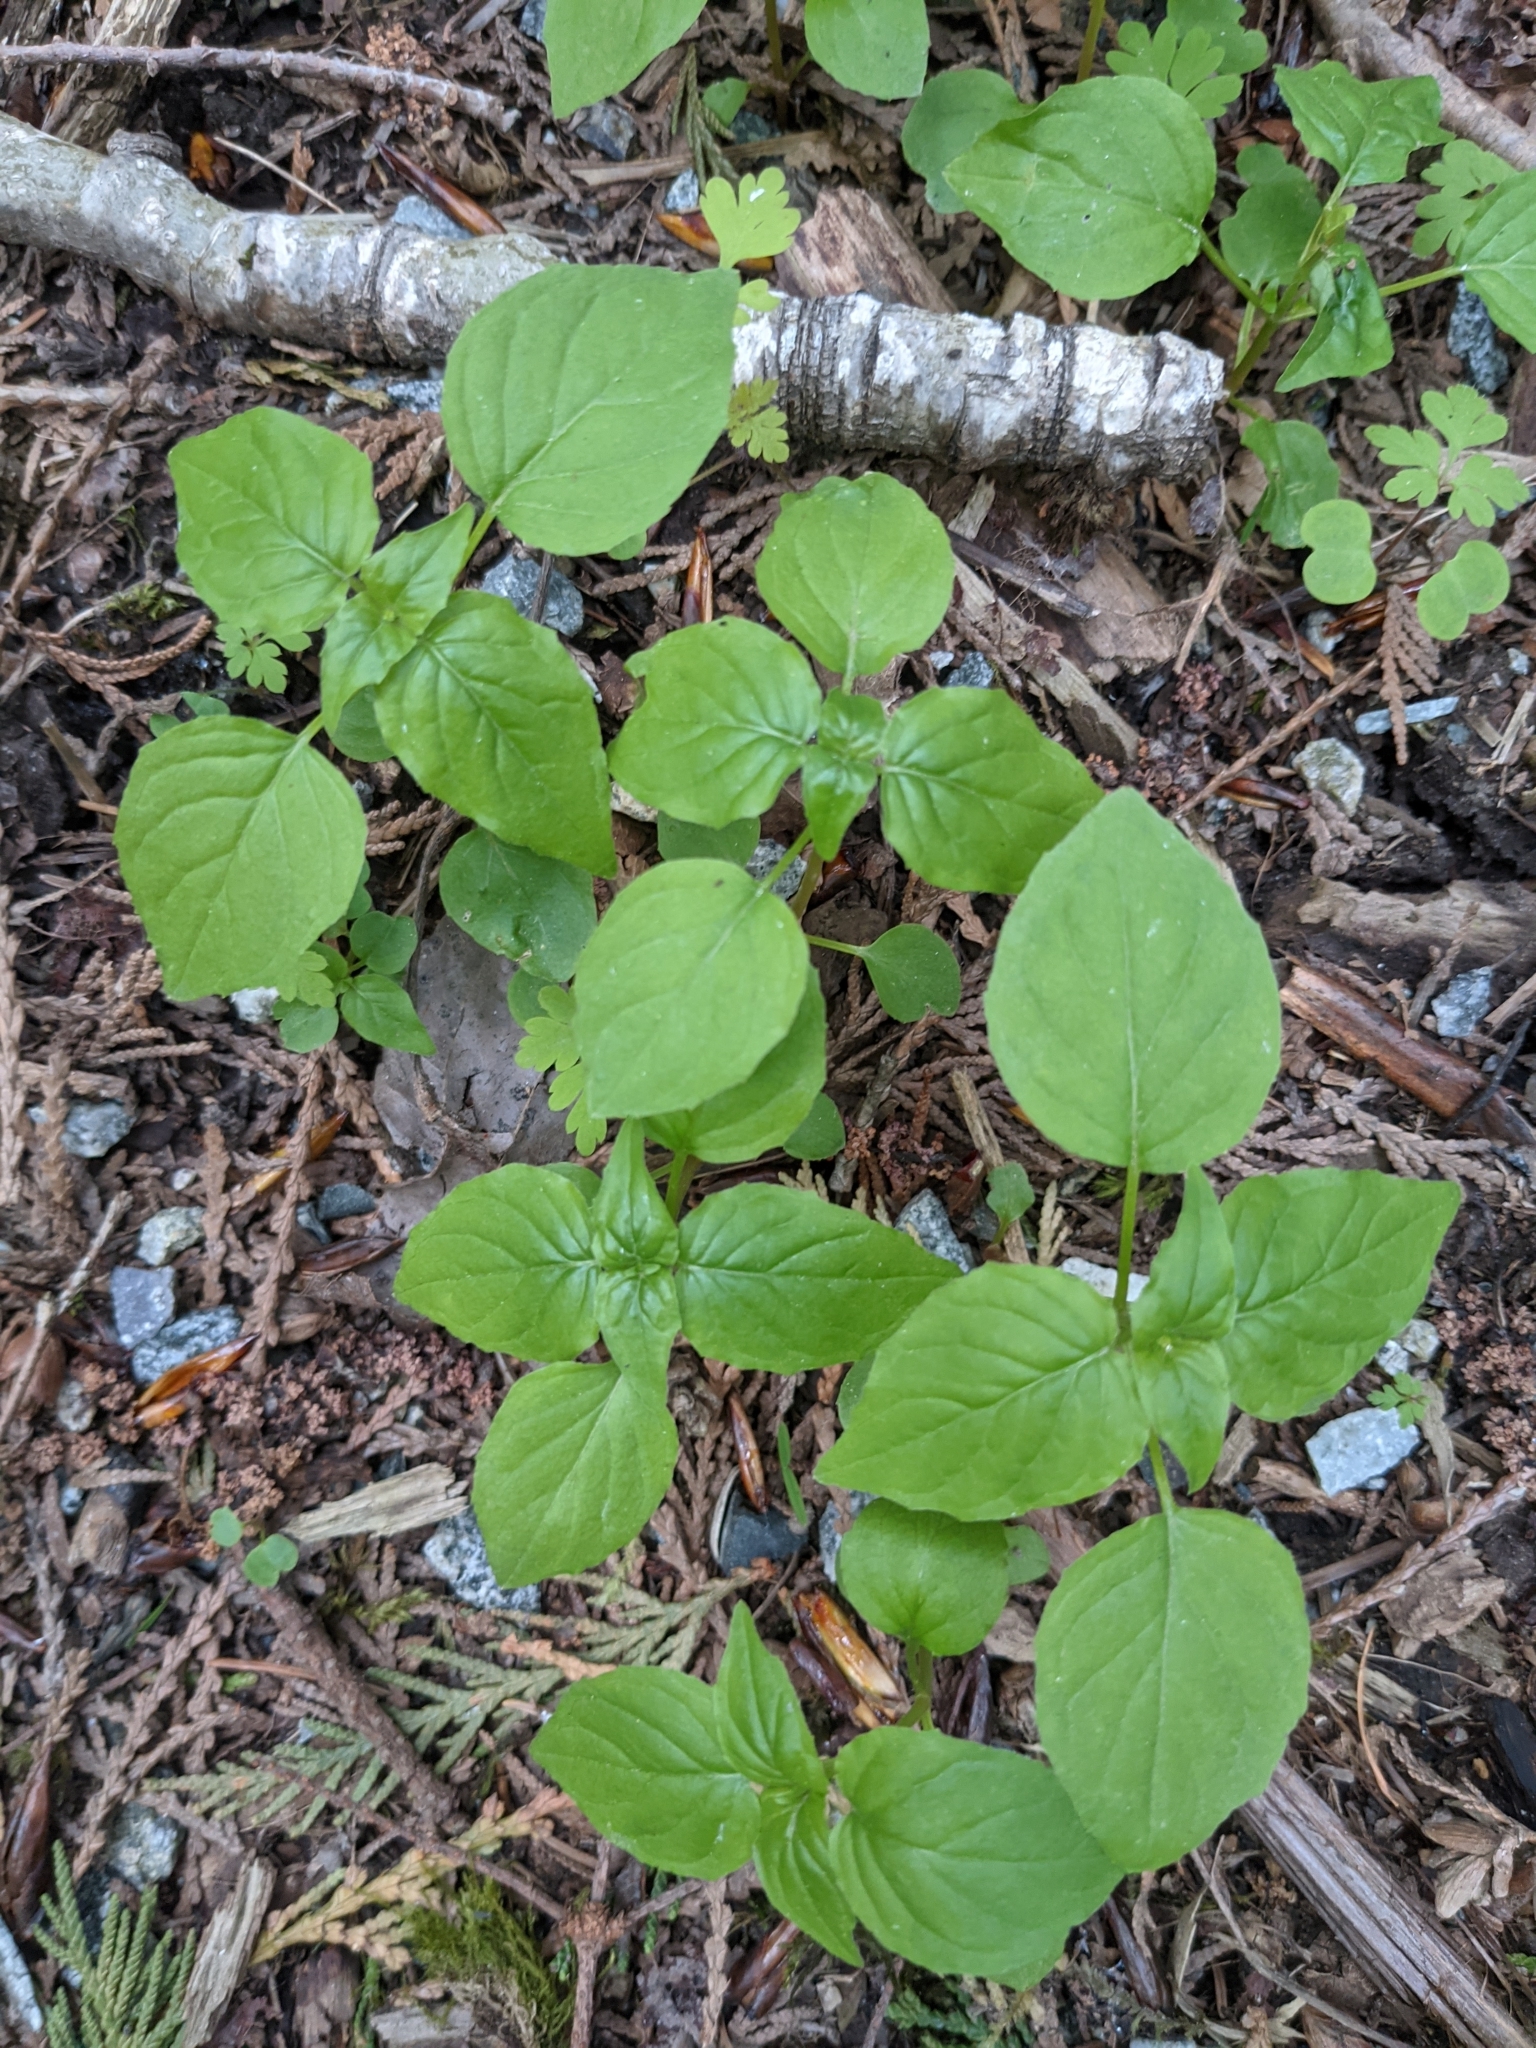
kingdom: Plantae
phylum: Tracheophyta
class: Magnoliopsida
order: Myrtales
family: Onagraceae
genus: Circaea
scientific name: Circaea alpina
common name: Alpine enchanter's-nightshade
